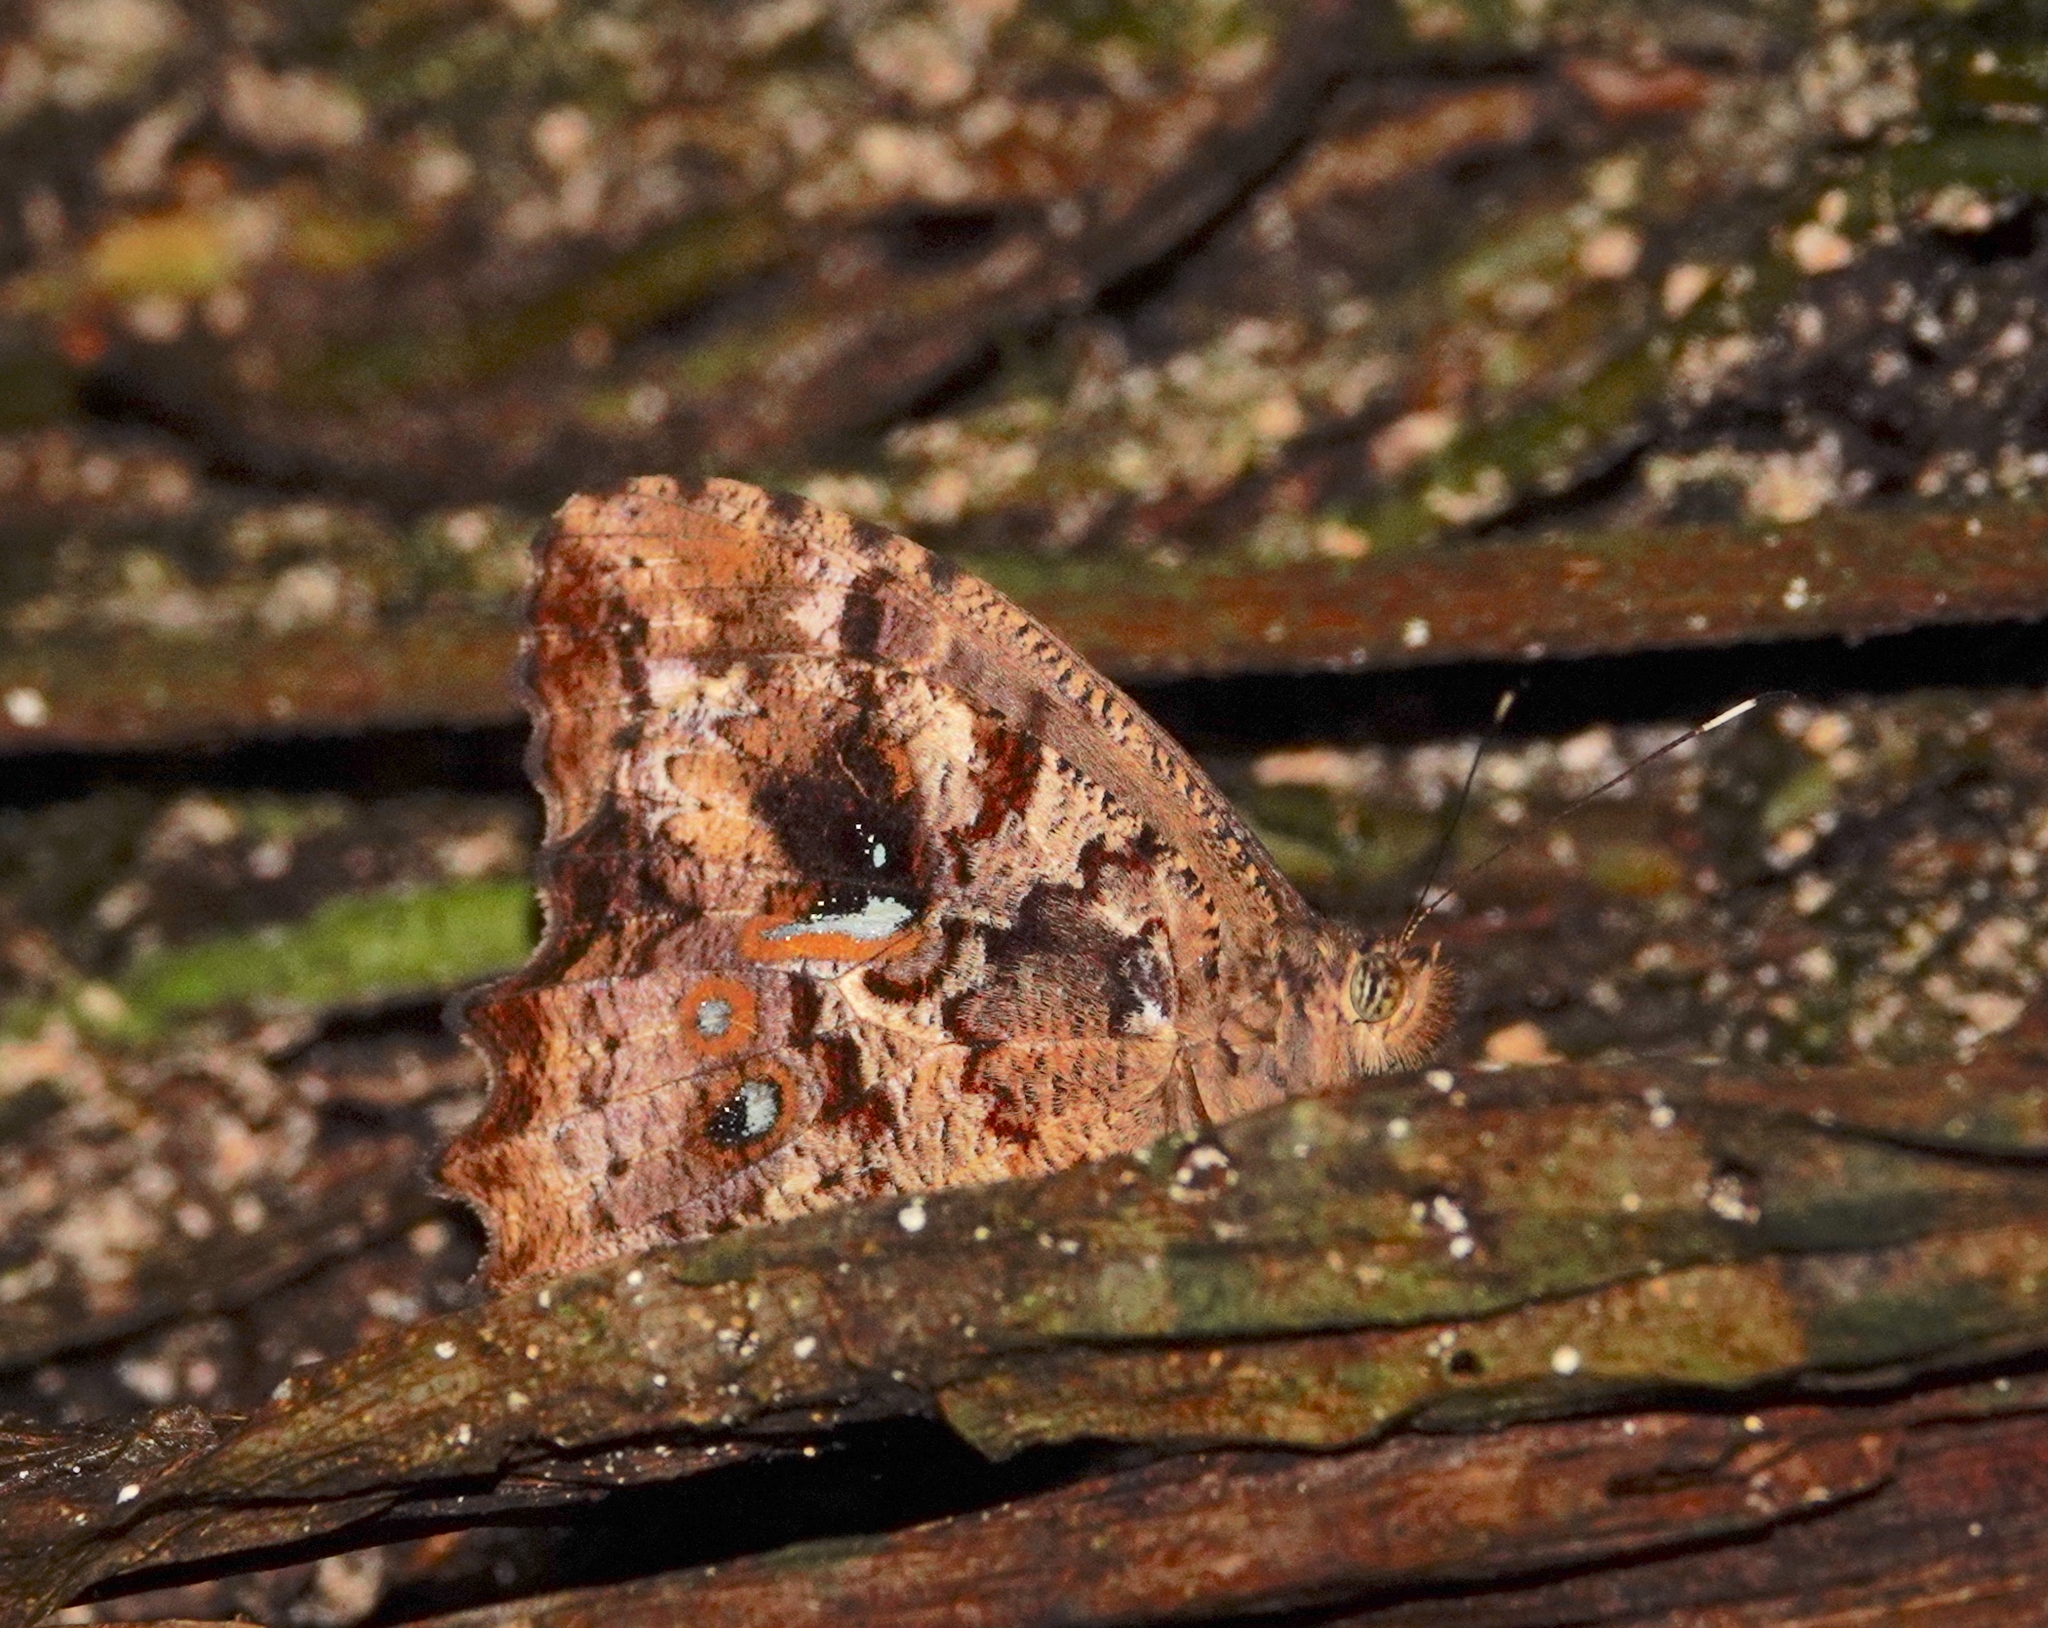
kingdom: Animalia
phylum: Arthropoda
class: Insecta
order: Lepidoptera
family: Nymphalidae
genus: Amphidecta
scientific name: Amphidecta callioma
